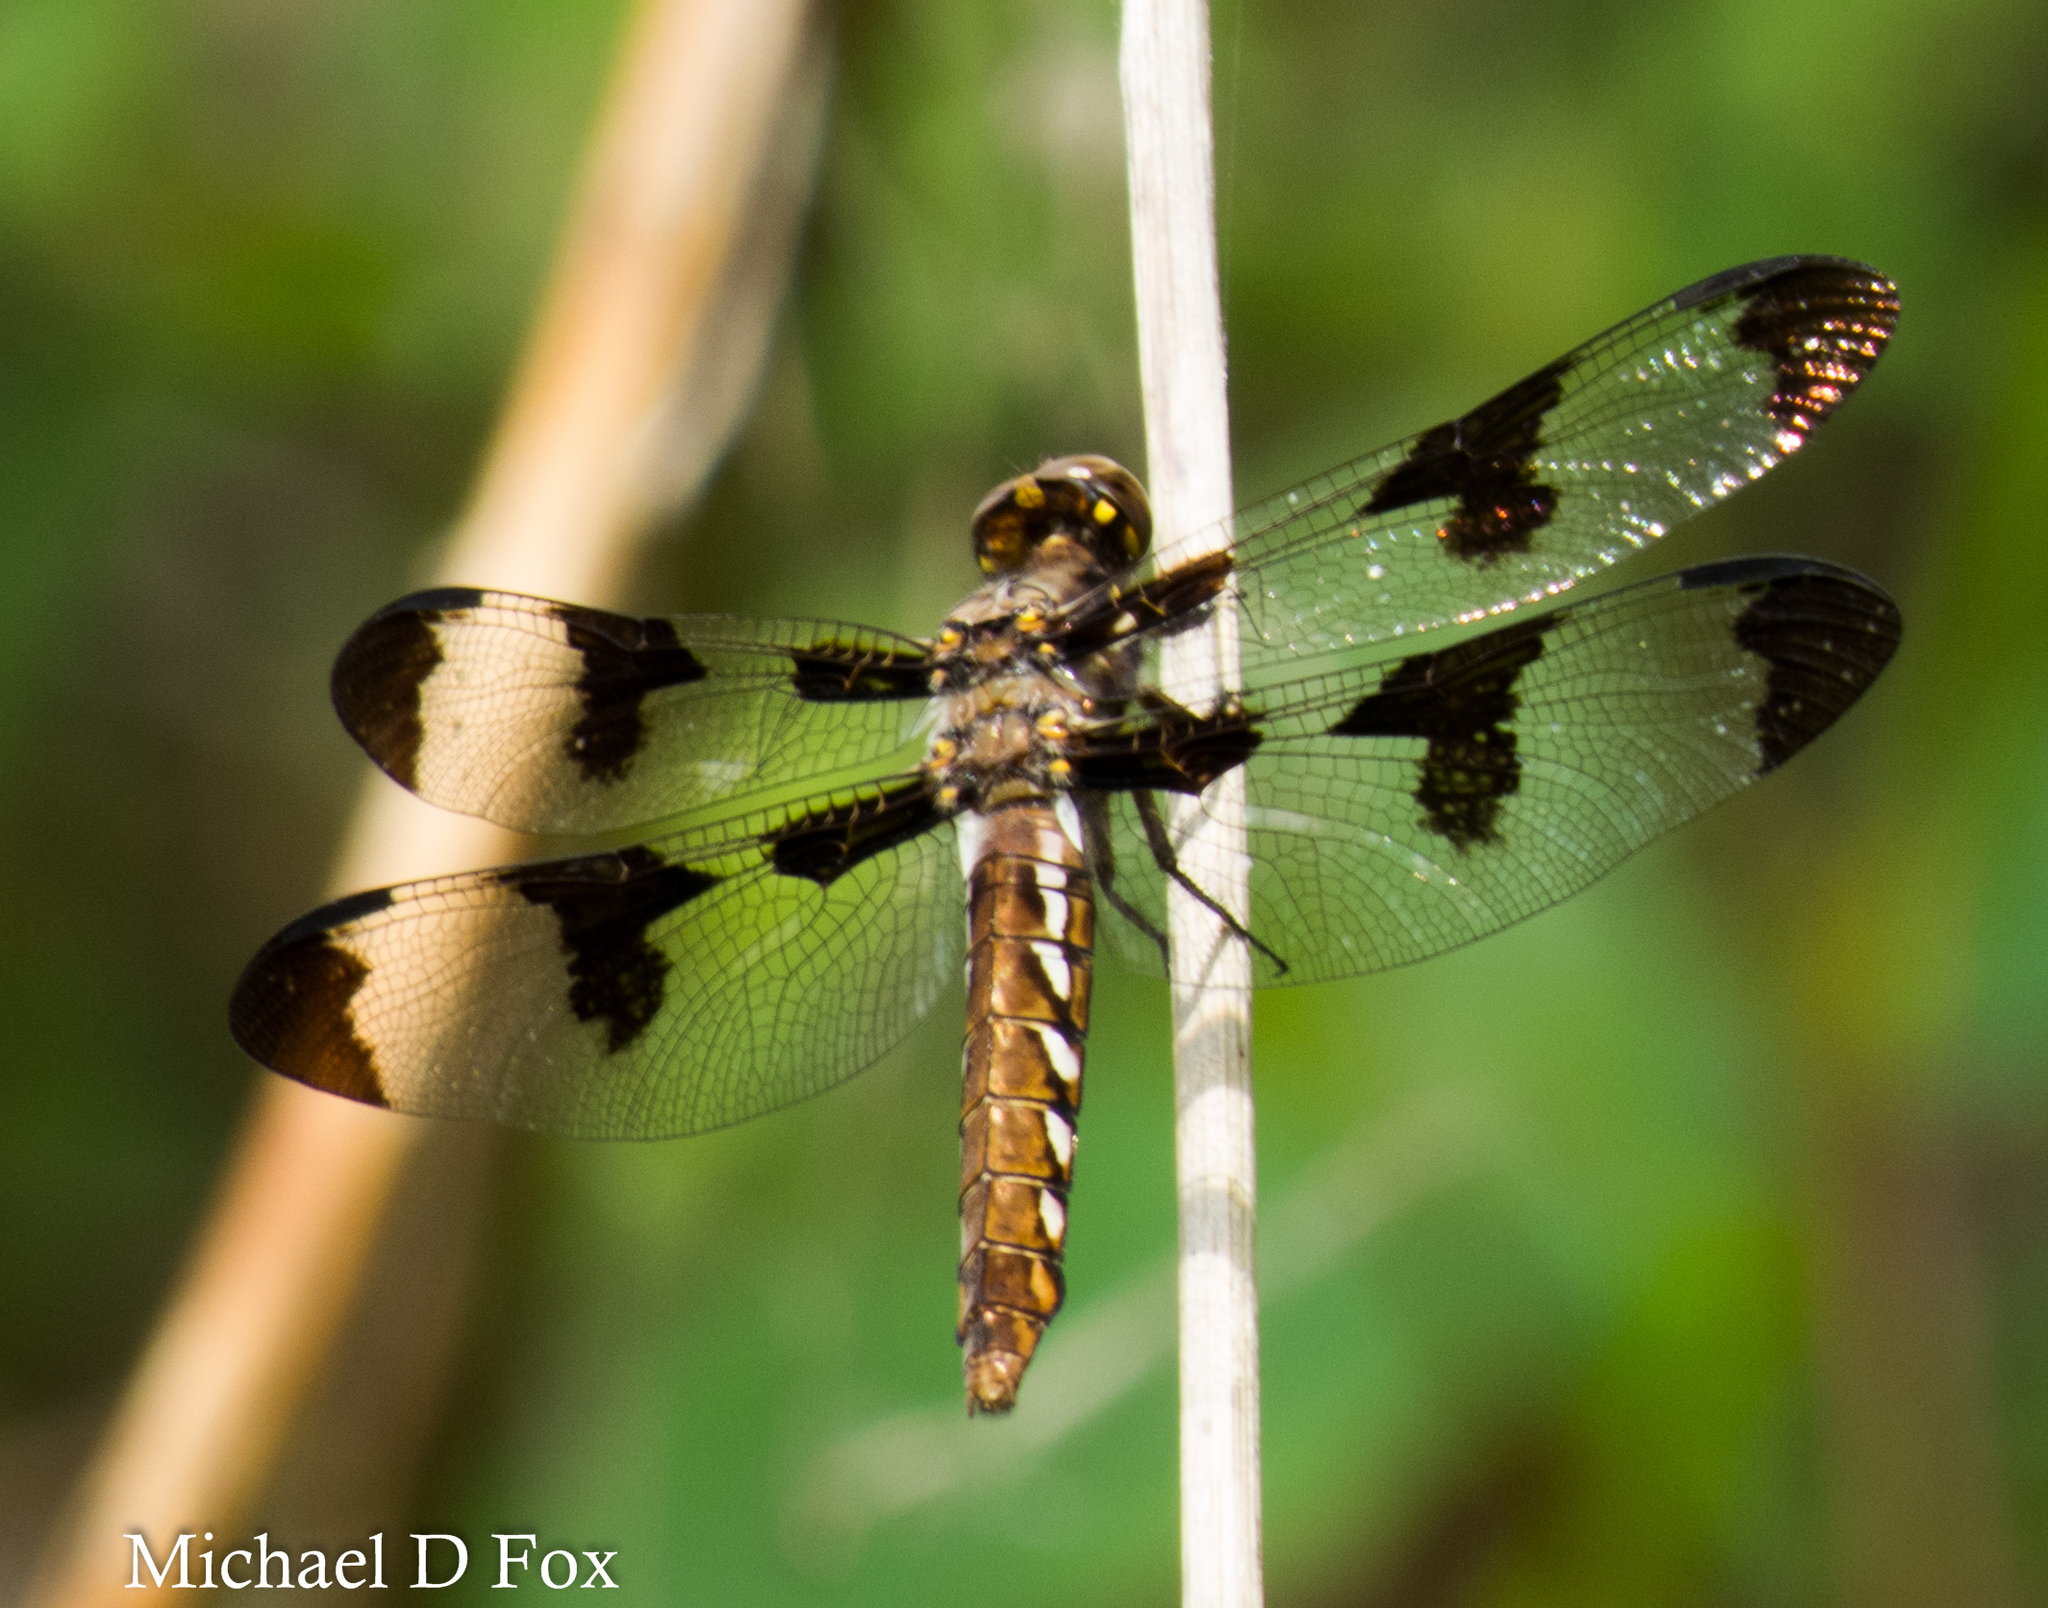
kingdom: Animalia
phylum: Arthropoda
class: Insecta
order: Odonata
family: Libellulidae
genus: Plathemis
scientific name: Plathemis lydia
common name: Common whitetail
